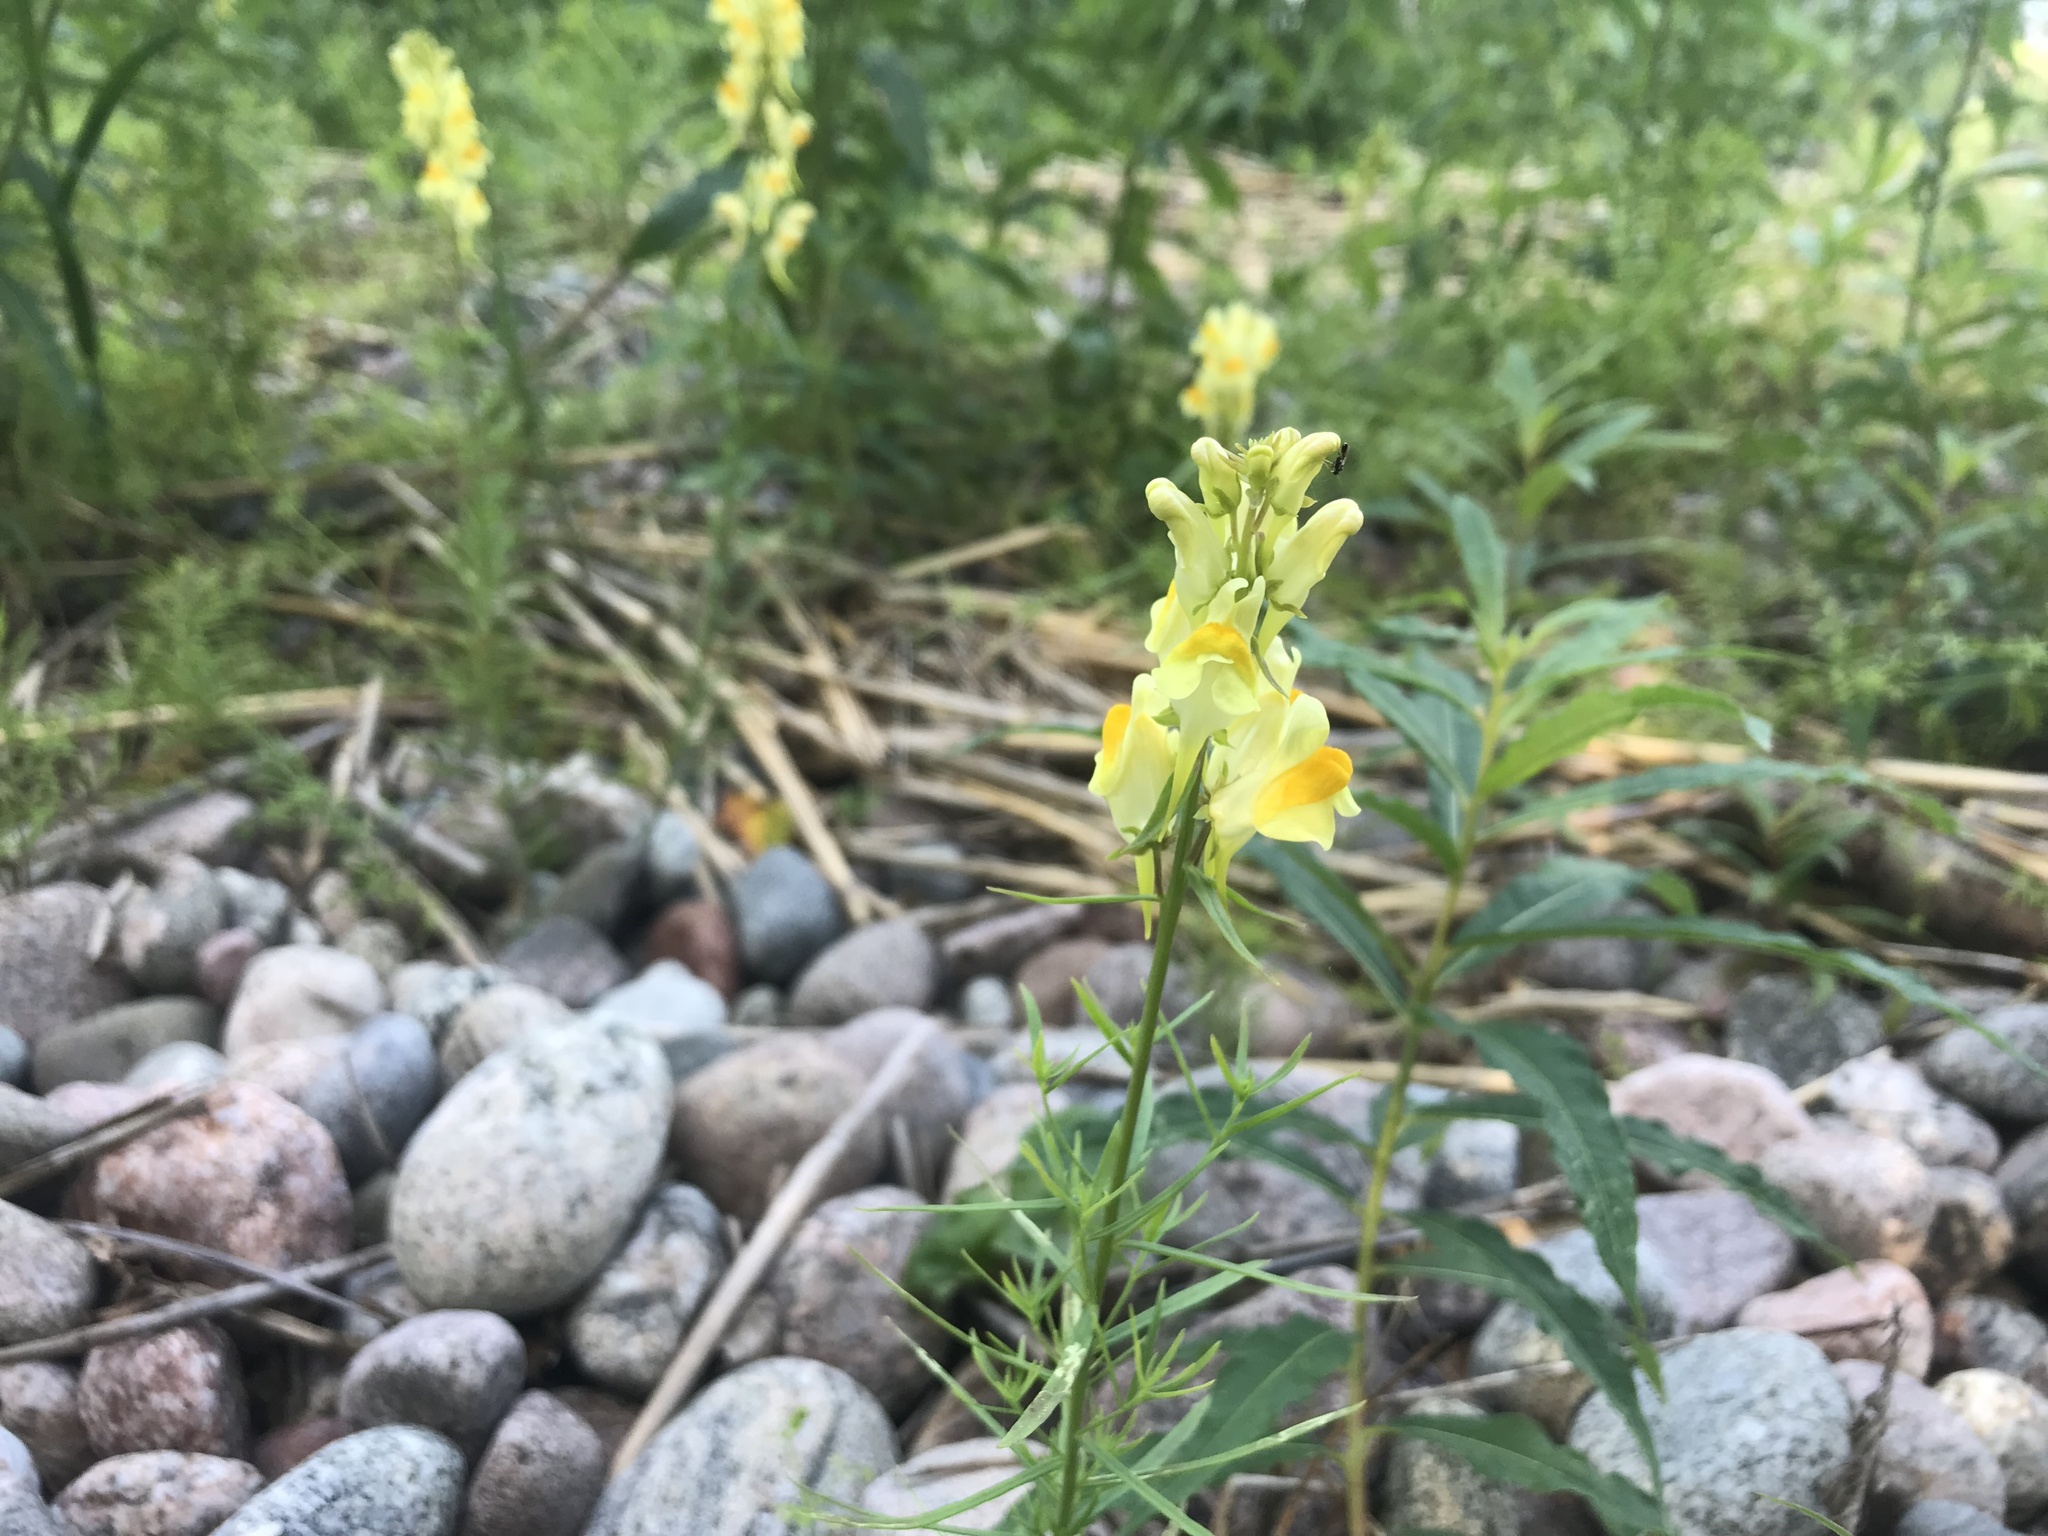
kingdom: Plantae
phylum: Tracheophyta
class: Magnoliopsida
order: Lamiales
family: Plantaginaceae
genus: Linaria
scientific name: Linaria vulgaris
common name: Butter and eggs
